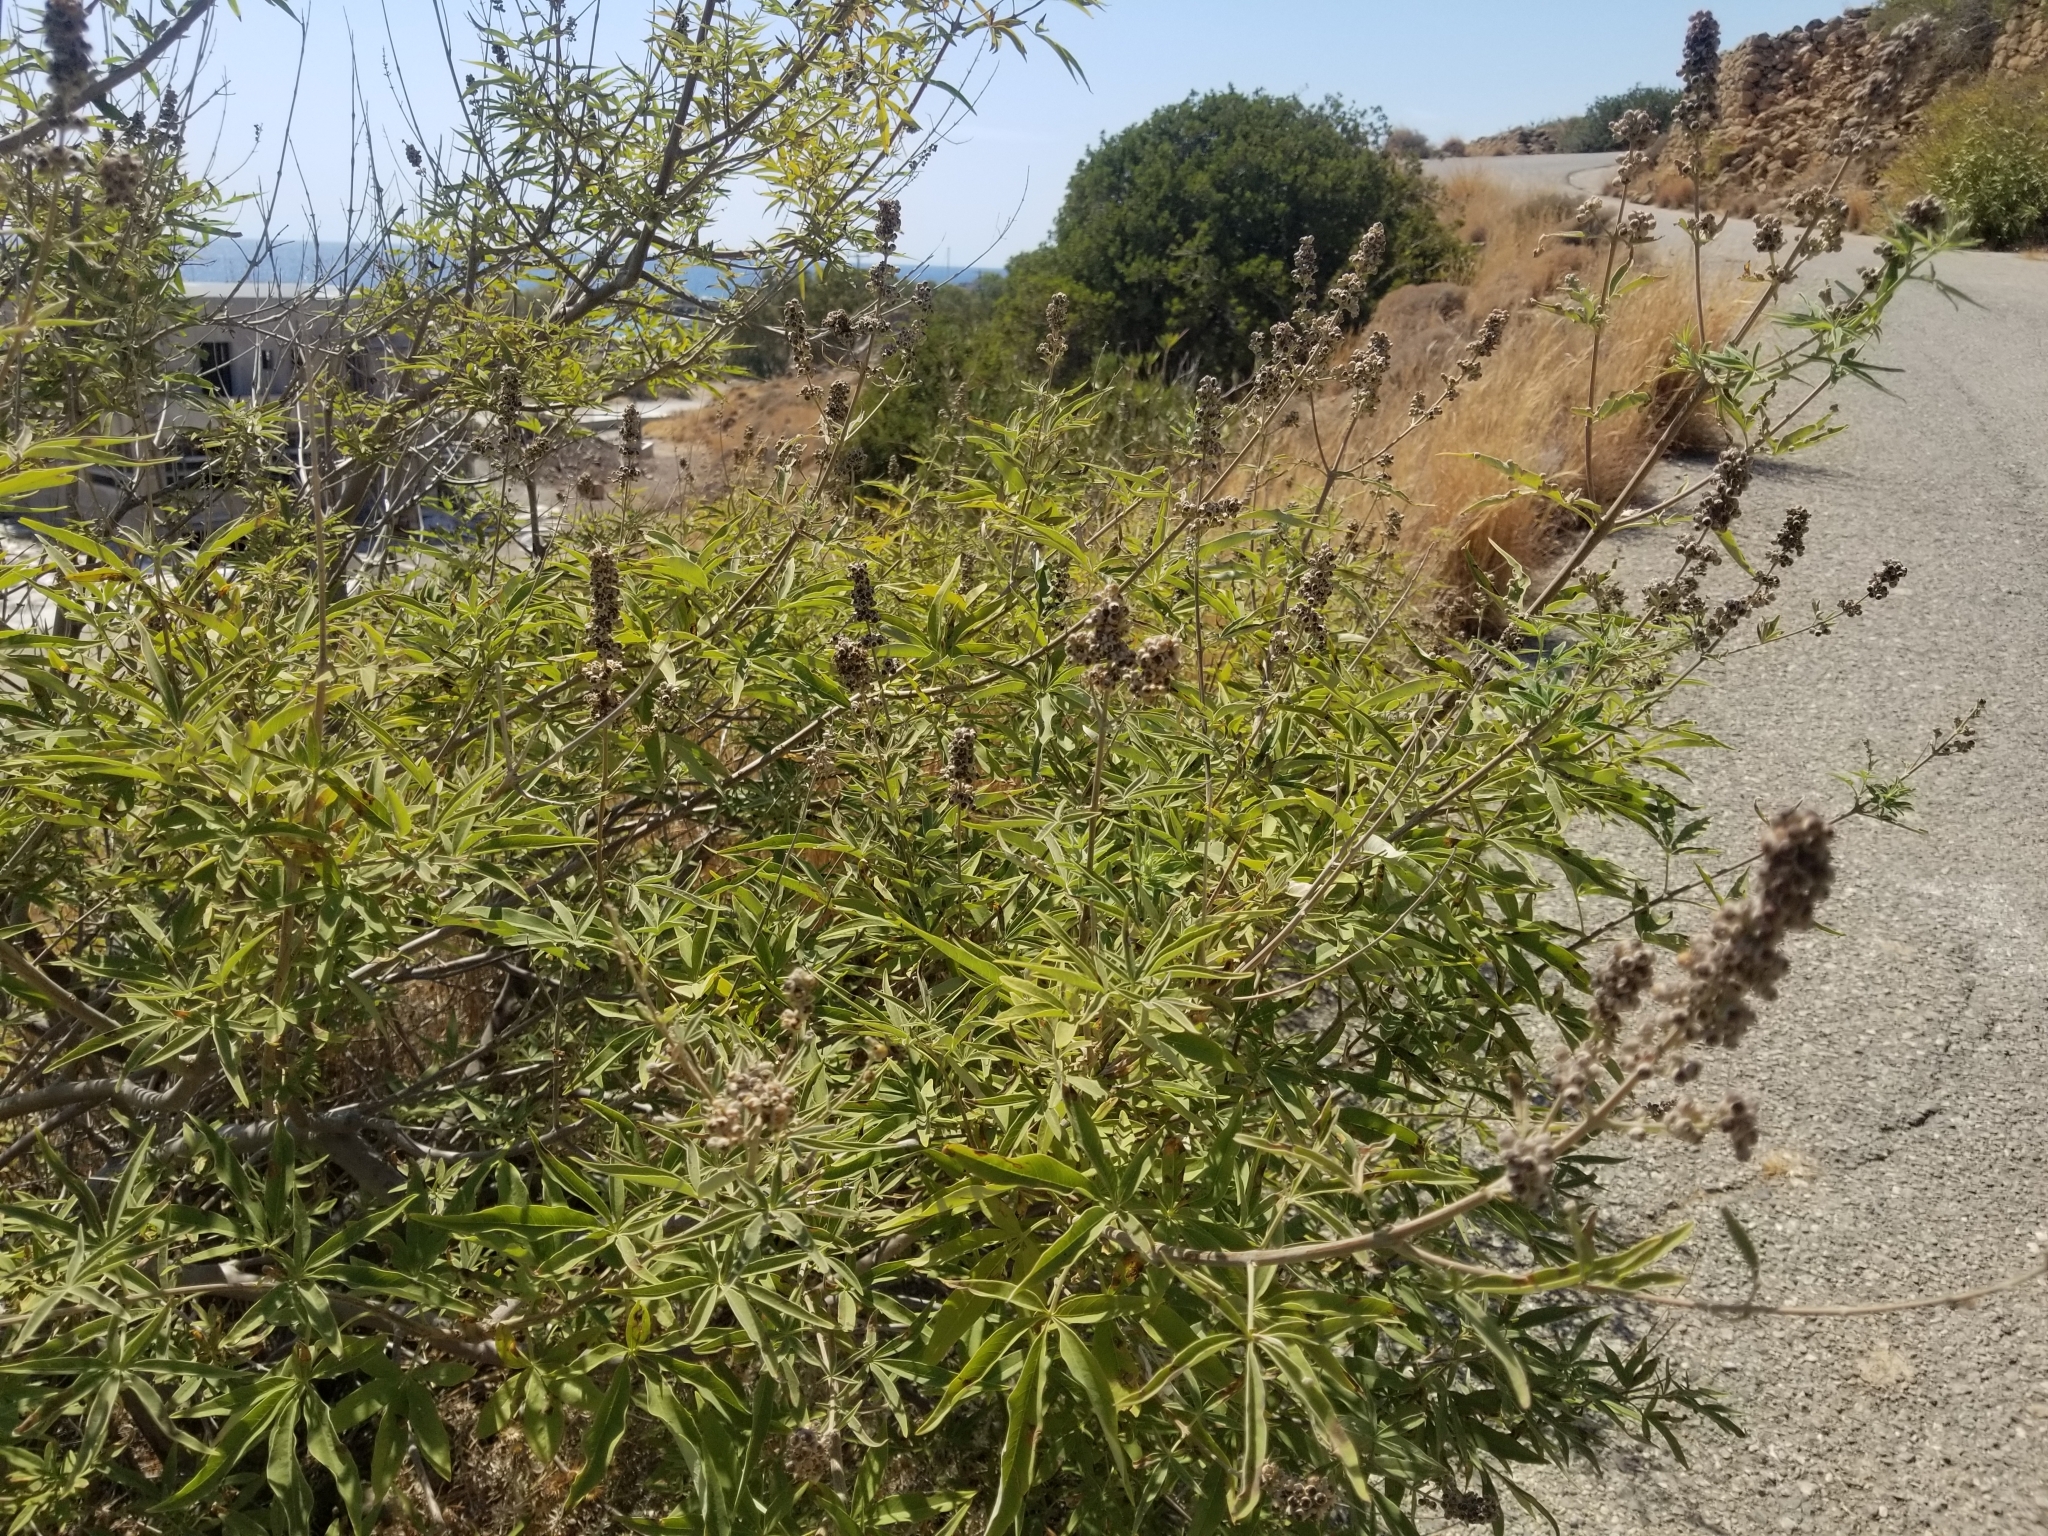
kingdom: Plantae
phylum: Tracheophyta
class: Magnoliopsida
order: Lamiales
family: Lamiaceae
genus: Vitex
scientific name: Vitex agnus-castus
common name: Chasteberry
